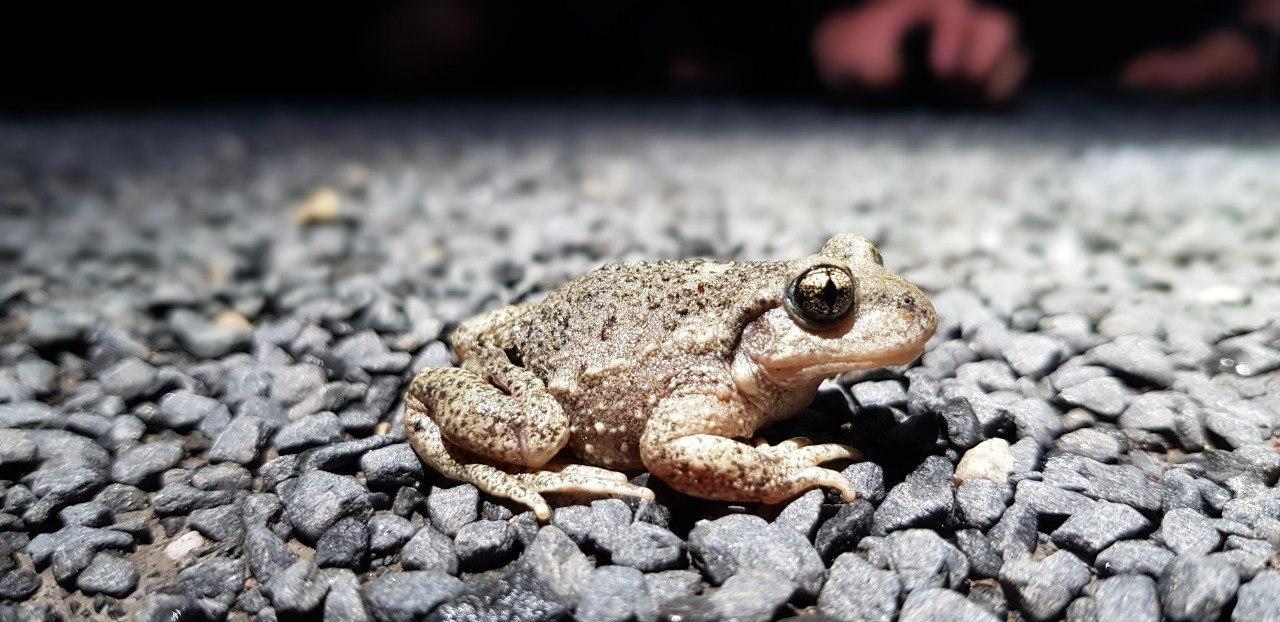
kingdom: Animalia
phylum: Chordata
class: Amphibia
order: Anura
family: Alytidae
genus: Alytes
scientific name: Alytes obstetricans
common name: Midwife toad
